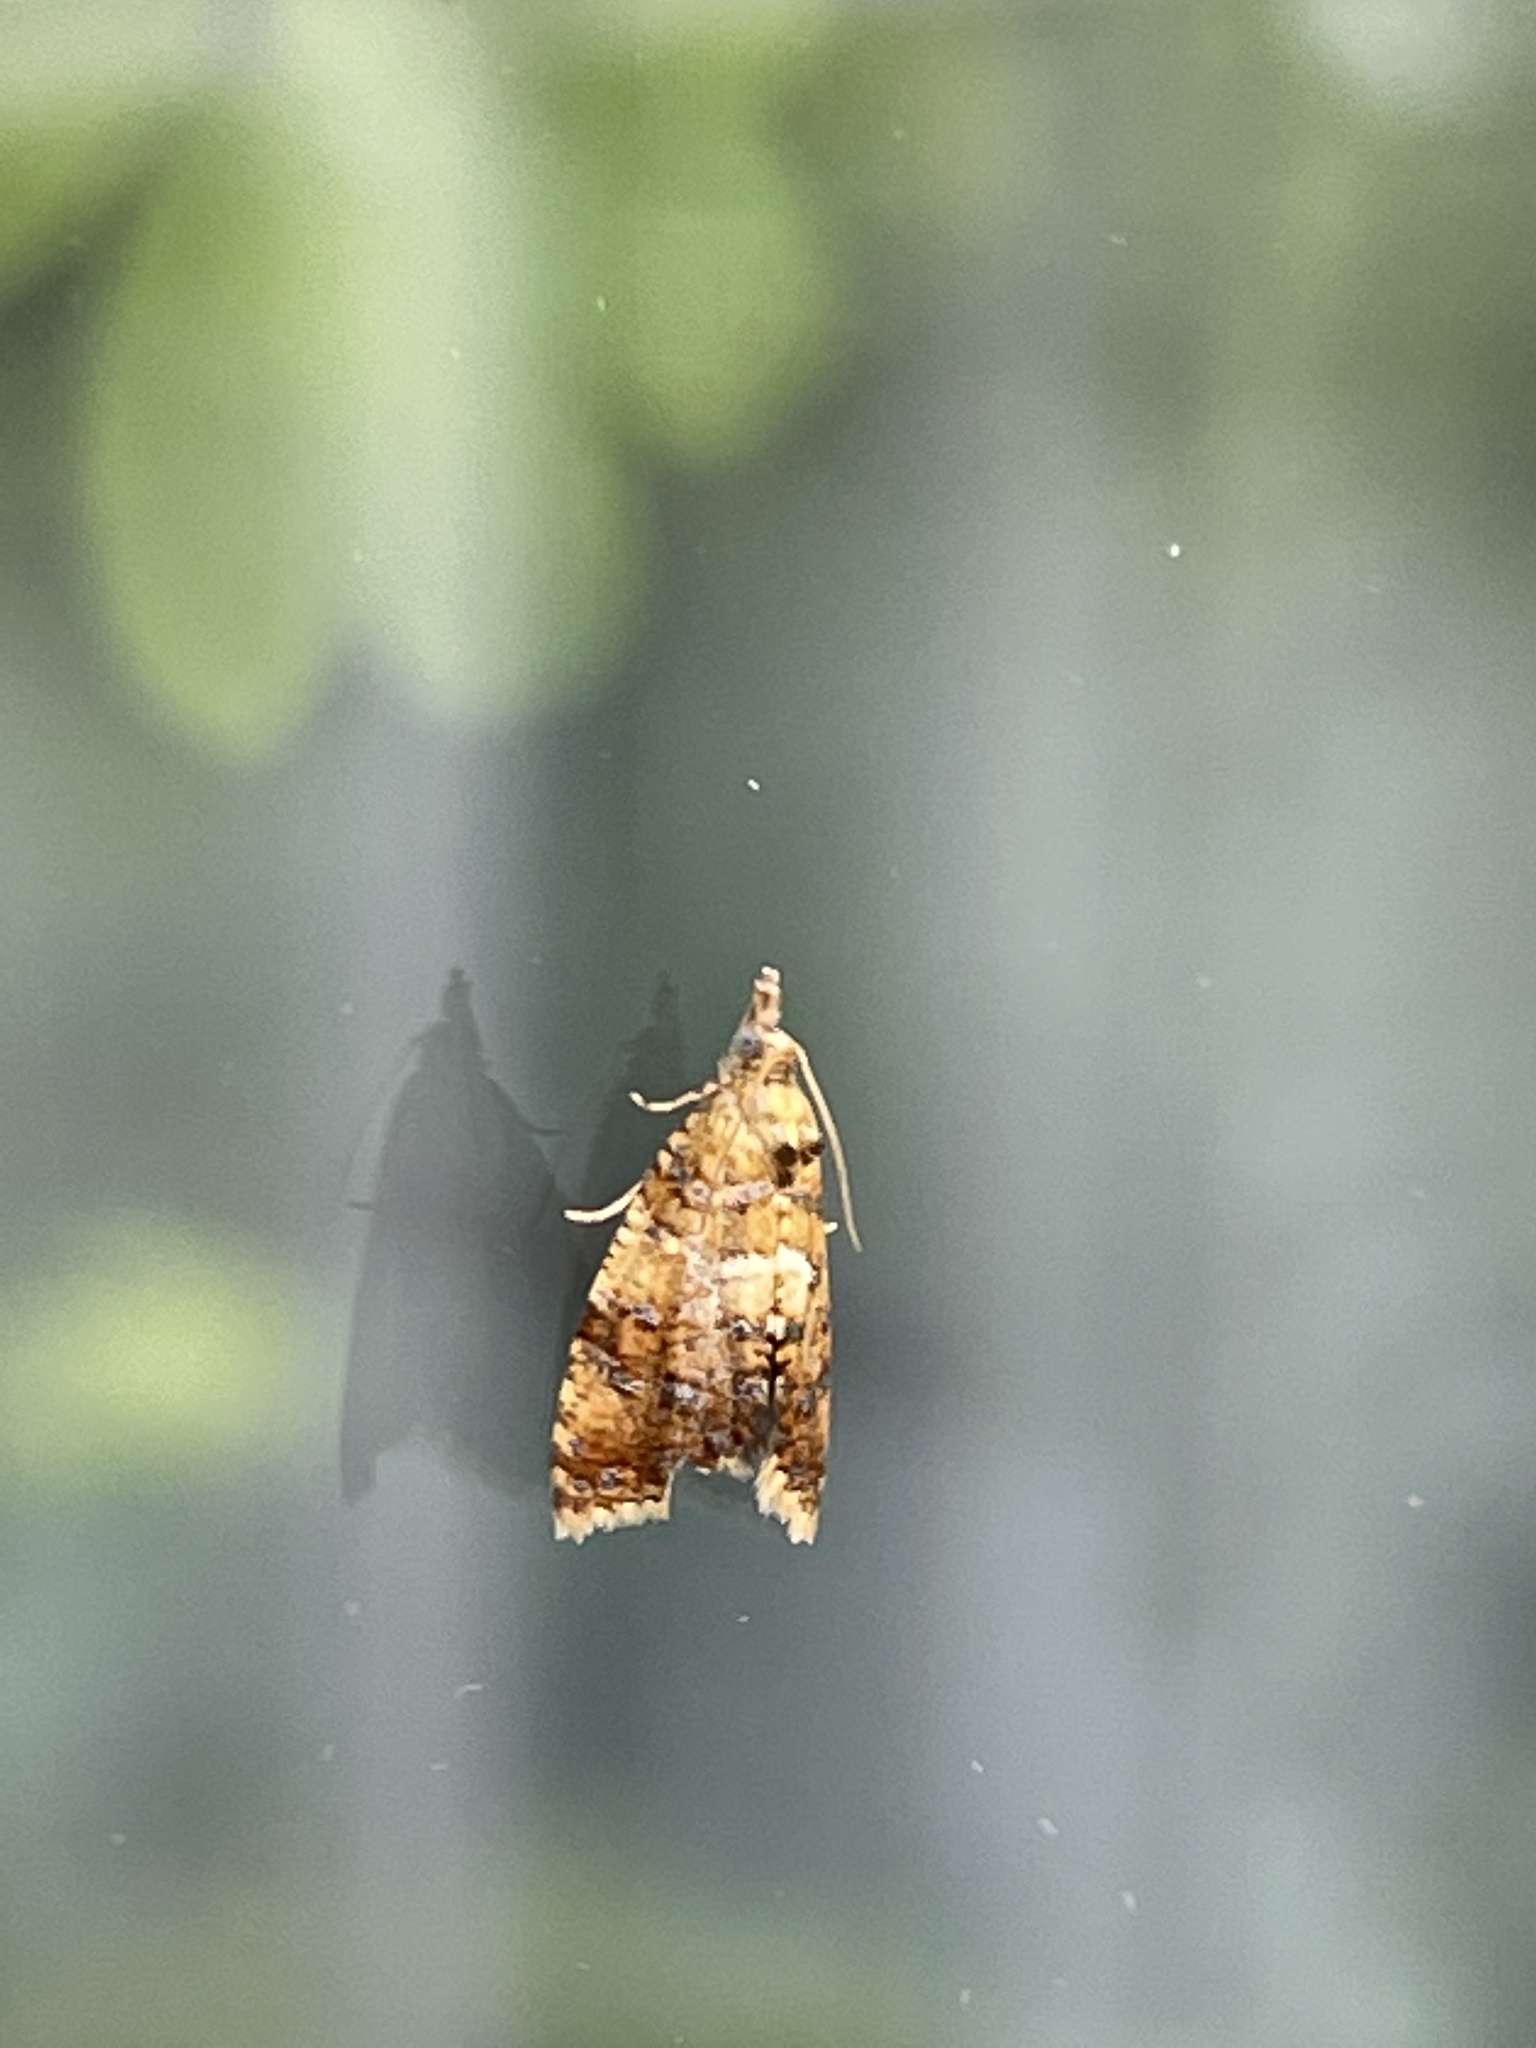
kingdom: Animalia
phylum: Arthropoda
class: Insecta
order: Lepidoptera
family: Tortricidae
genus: Pseudargyrotoza
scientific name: Pseudargyrotoza conwagana
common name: Yellow-spot twist
